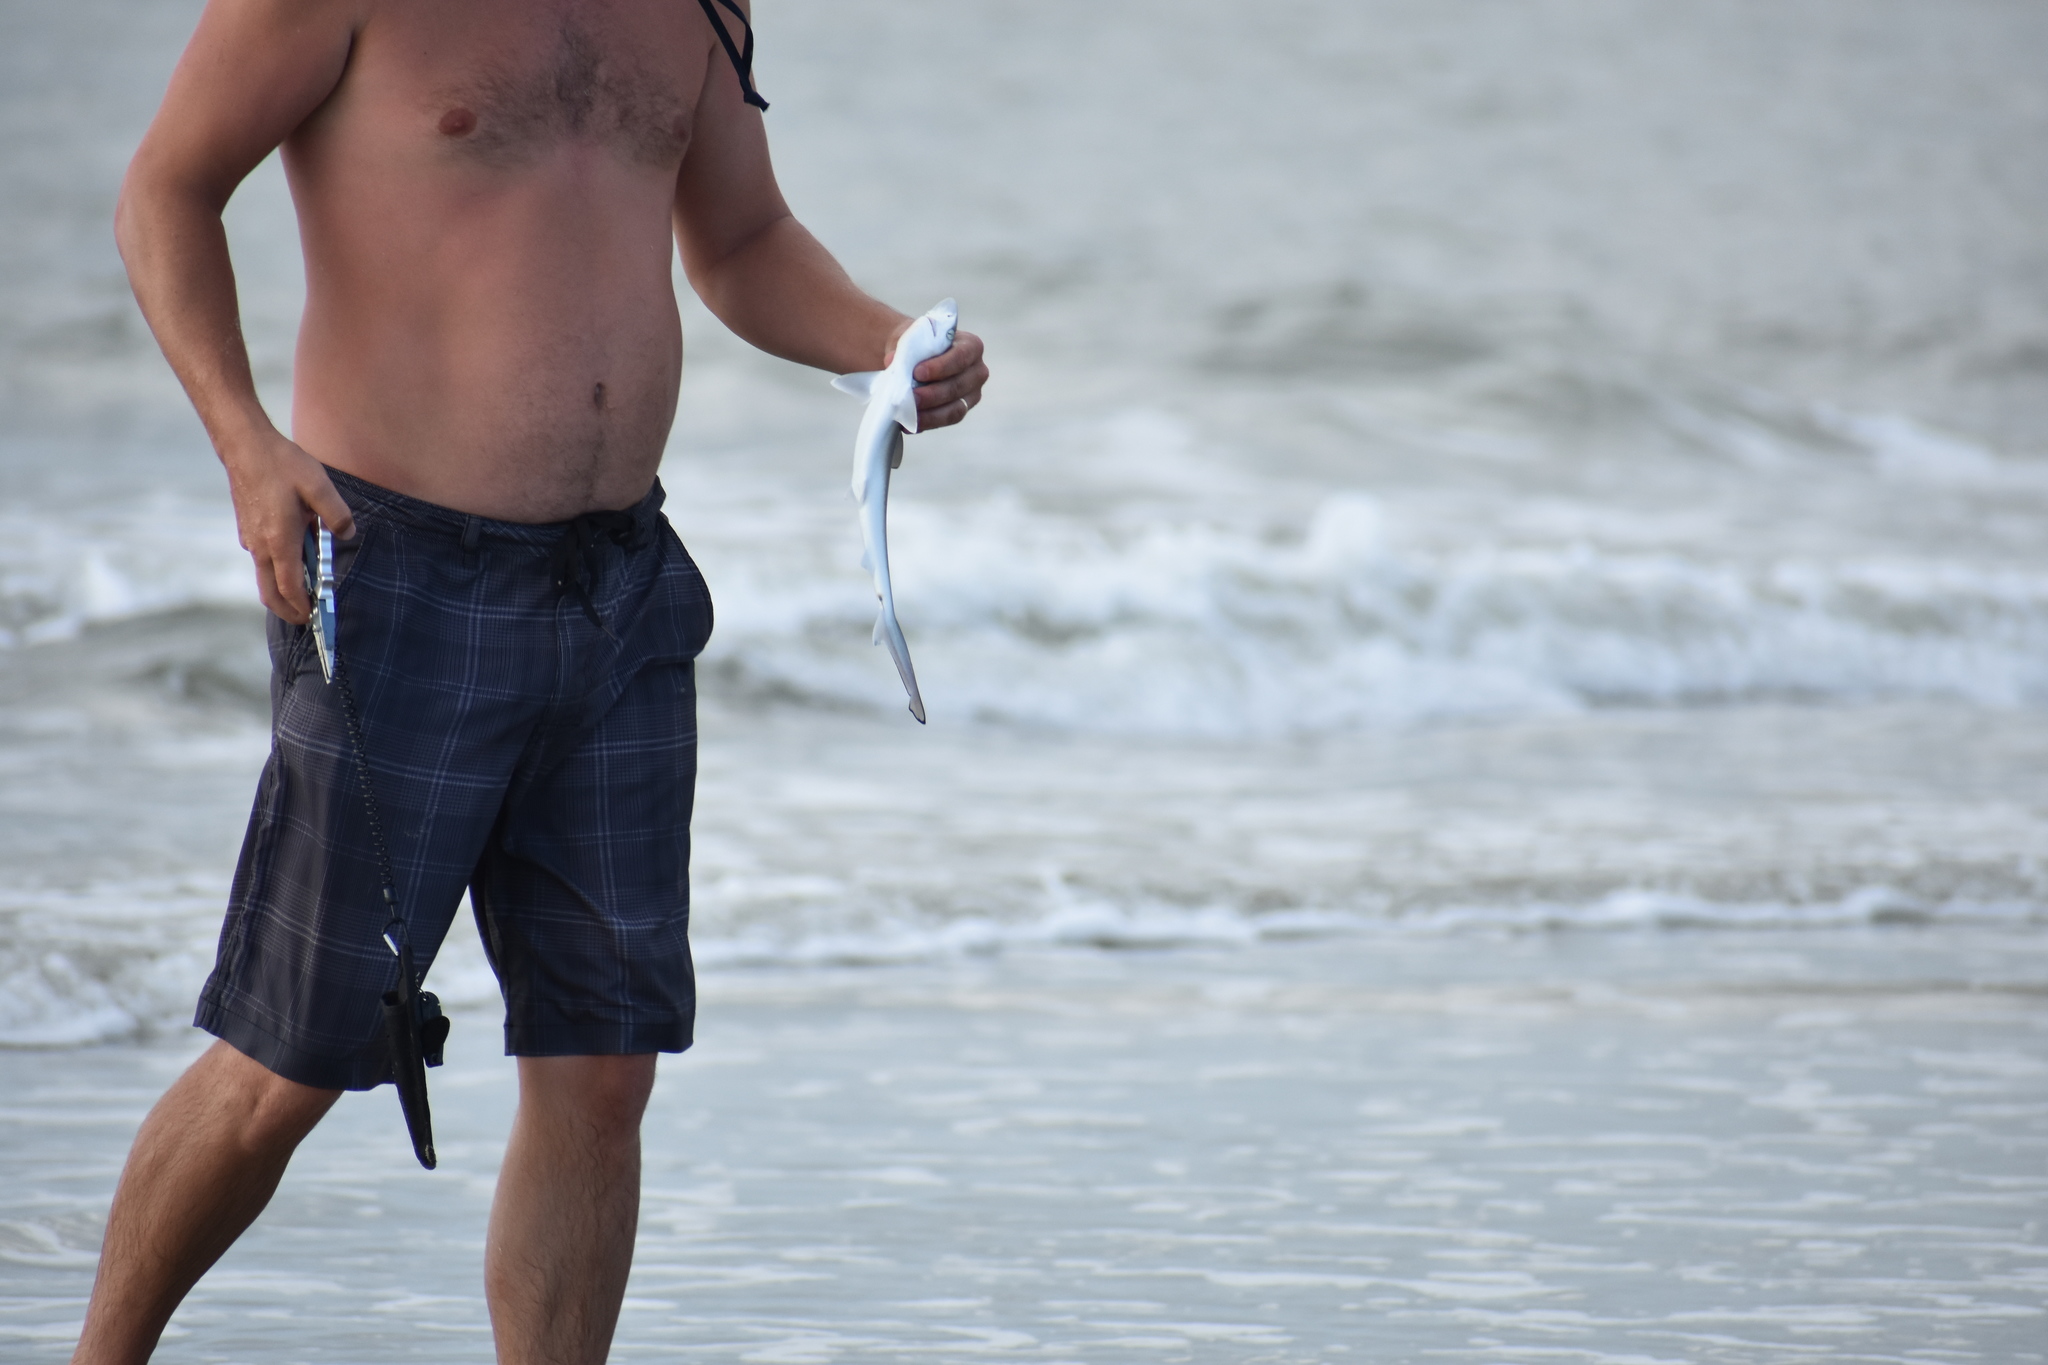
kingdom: Animalia
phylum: Chordata
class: Elasmobranchii
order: Carcharhiniformes
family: Carcharhinidae
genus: Rhizoprionodon
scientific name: Rhizoprionodon terraenovae
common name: Atlantic sharpnose shark
